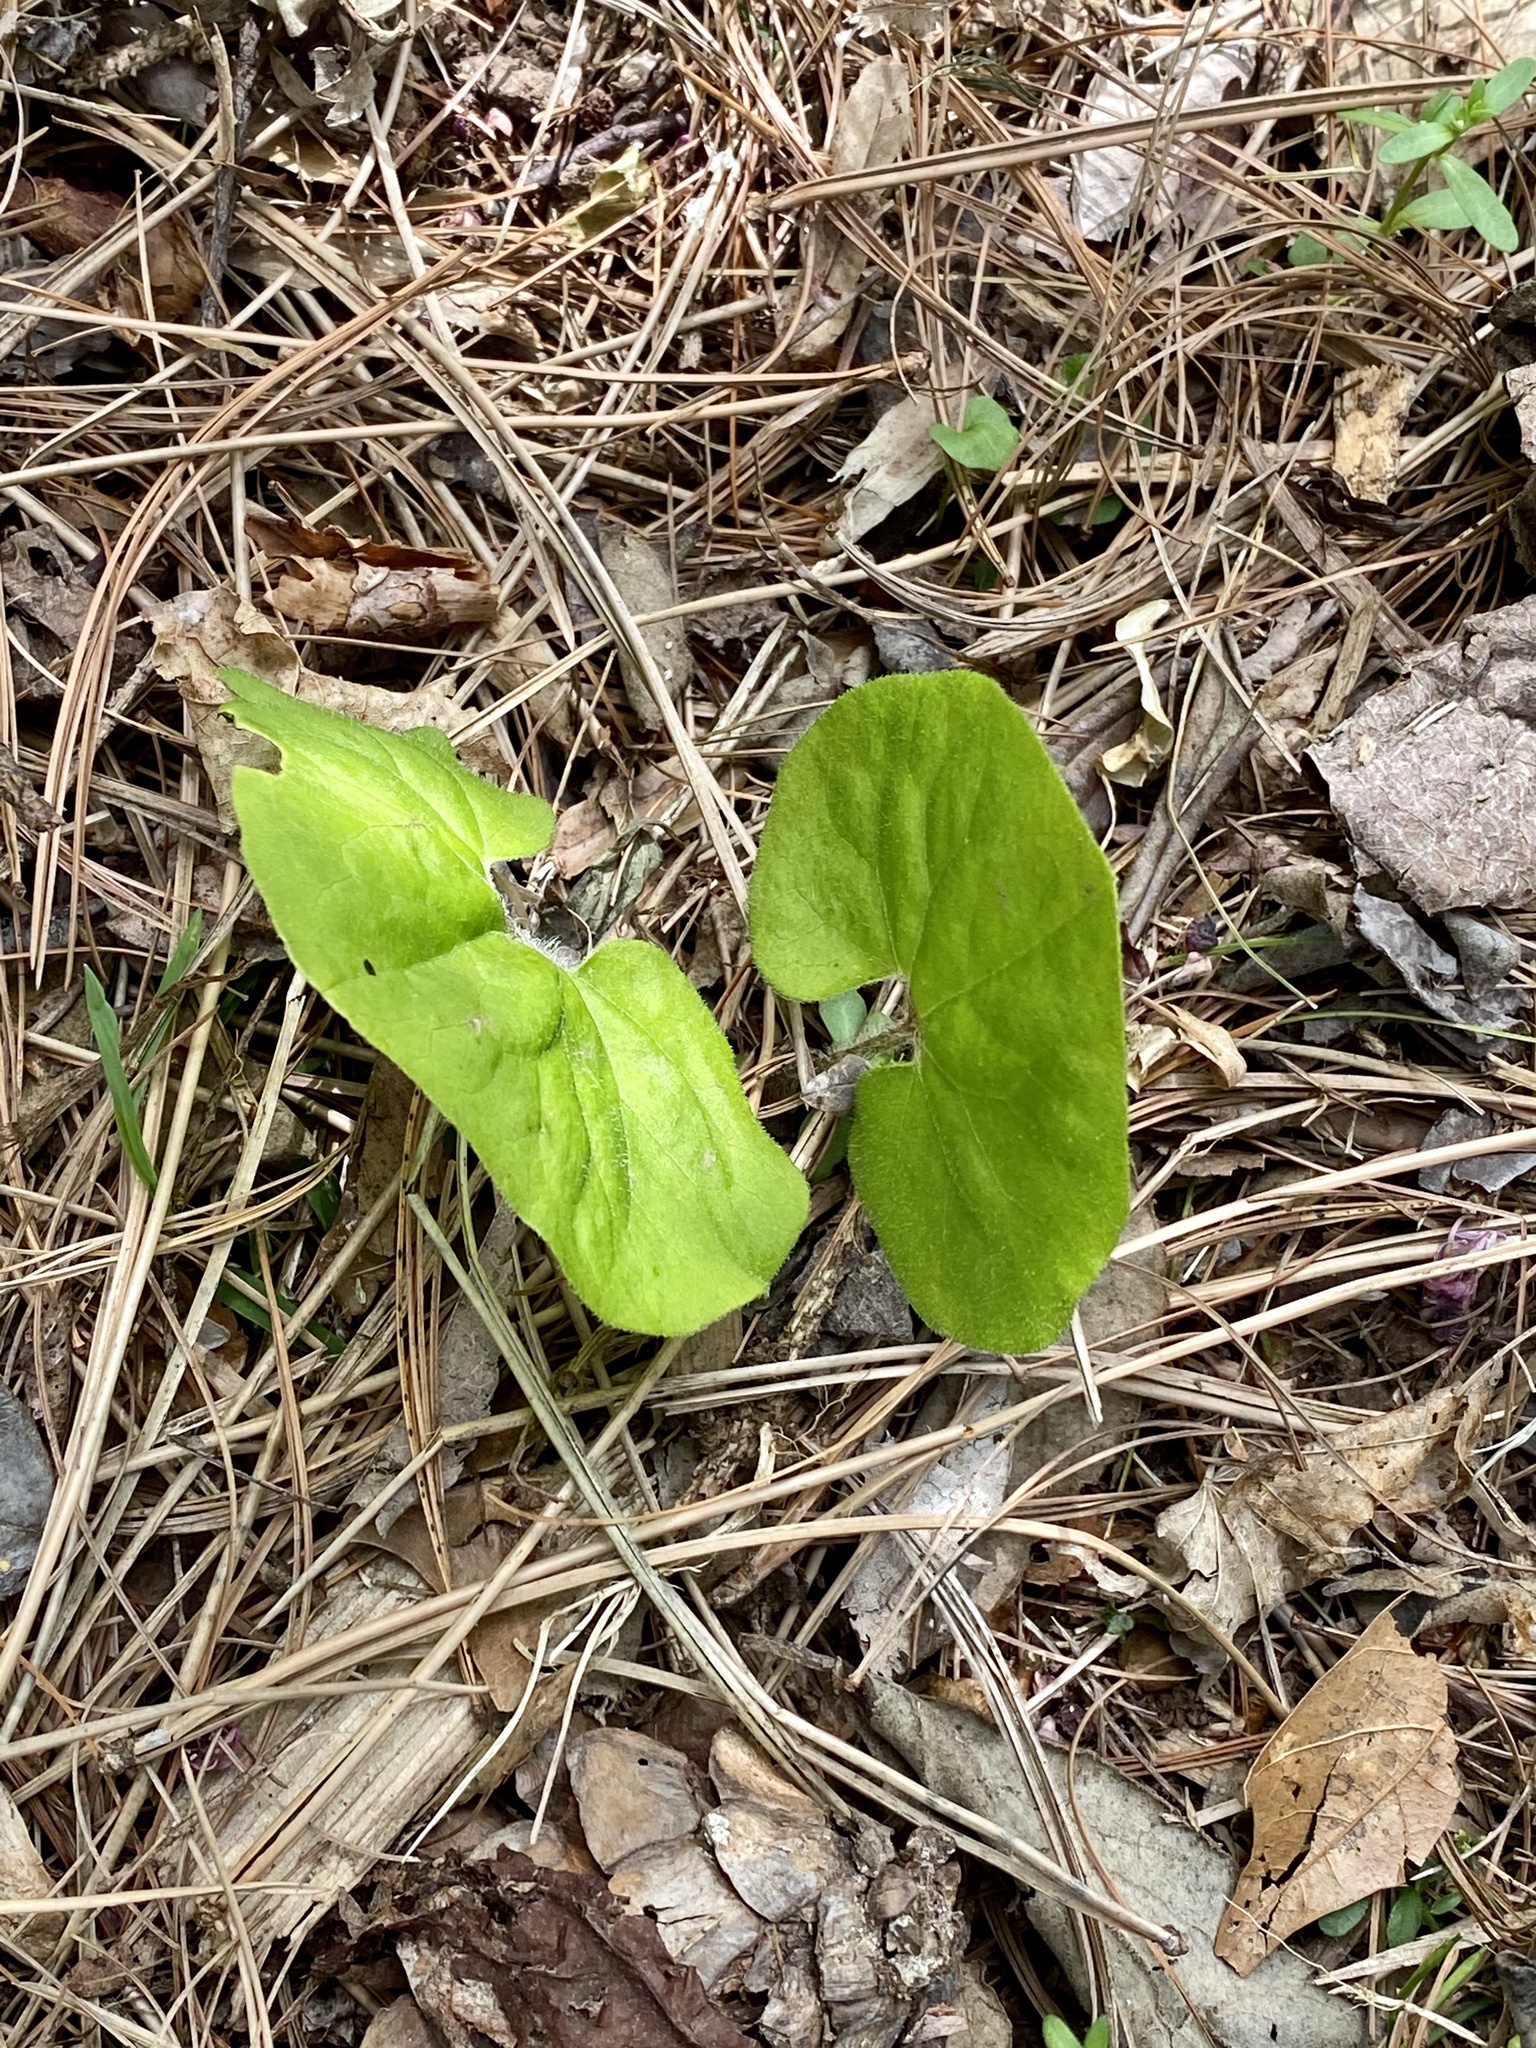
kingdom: Plantae
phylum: Tracheophyta
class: Magnoliopsida
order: Piperales
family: Aristolochiaceae
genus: Asarum
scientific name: Asarum canadense
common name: Wild ginger
